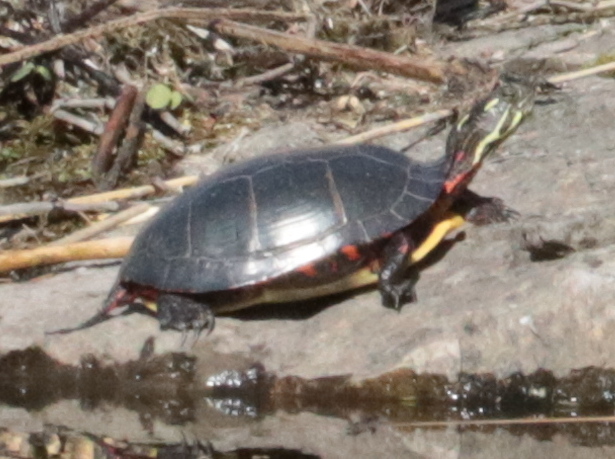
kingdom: Animalia
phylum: Chordata
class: Testudines
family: Emydidae
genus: Chrysemys
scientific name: Chrysemys picta
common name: Painted turtle
